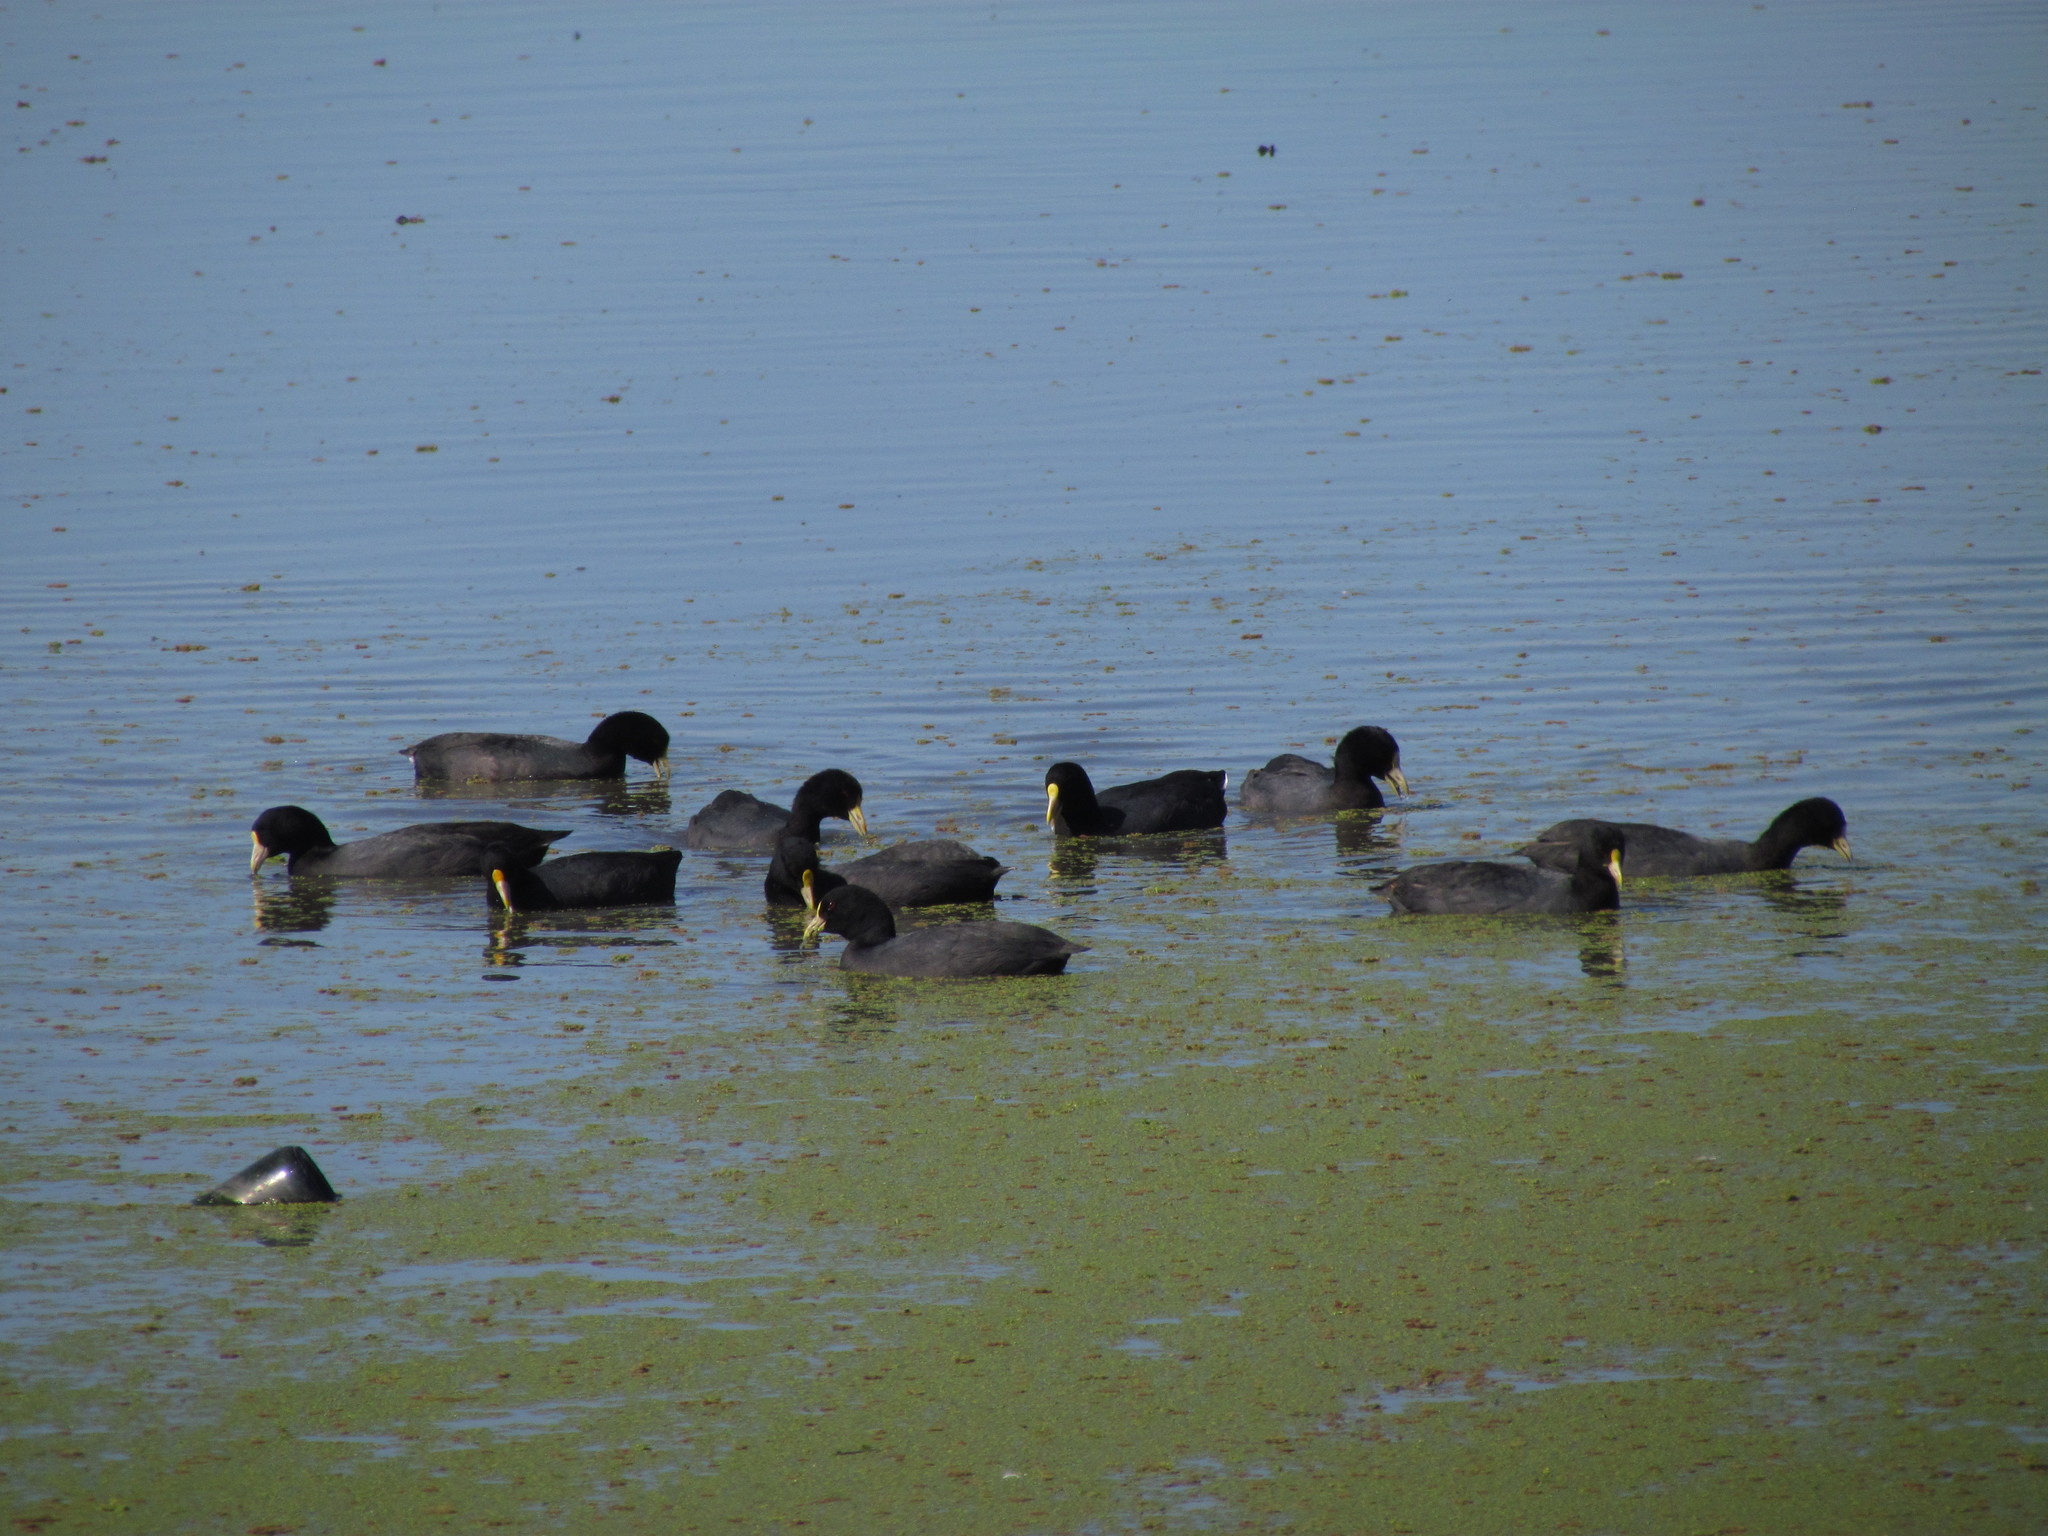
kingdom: Animalia
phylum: Chordata
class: Aves
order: Gruiformes
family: Rallidae
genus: Fulica
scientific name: Fulica leucoptera
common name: White-winged coot
